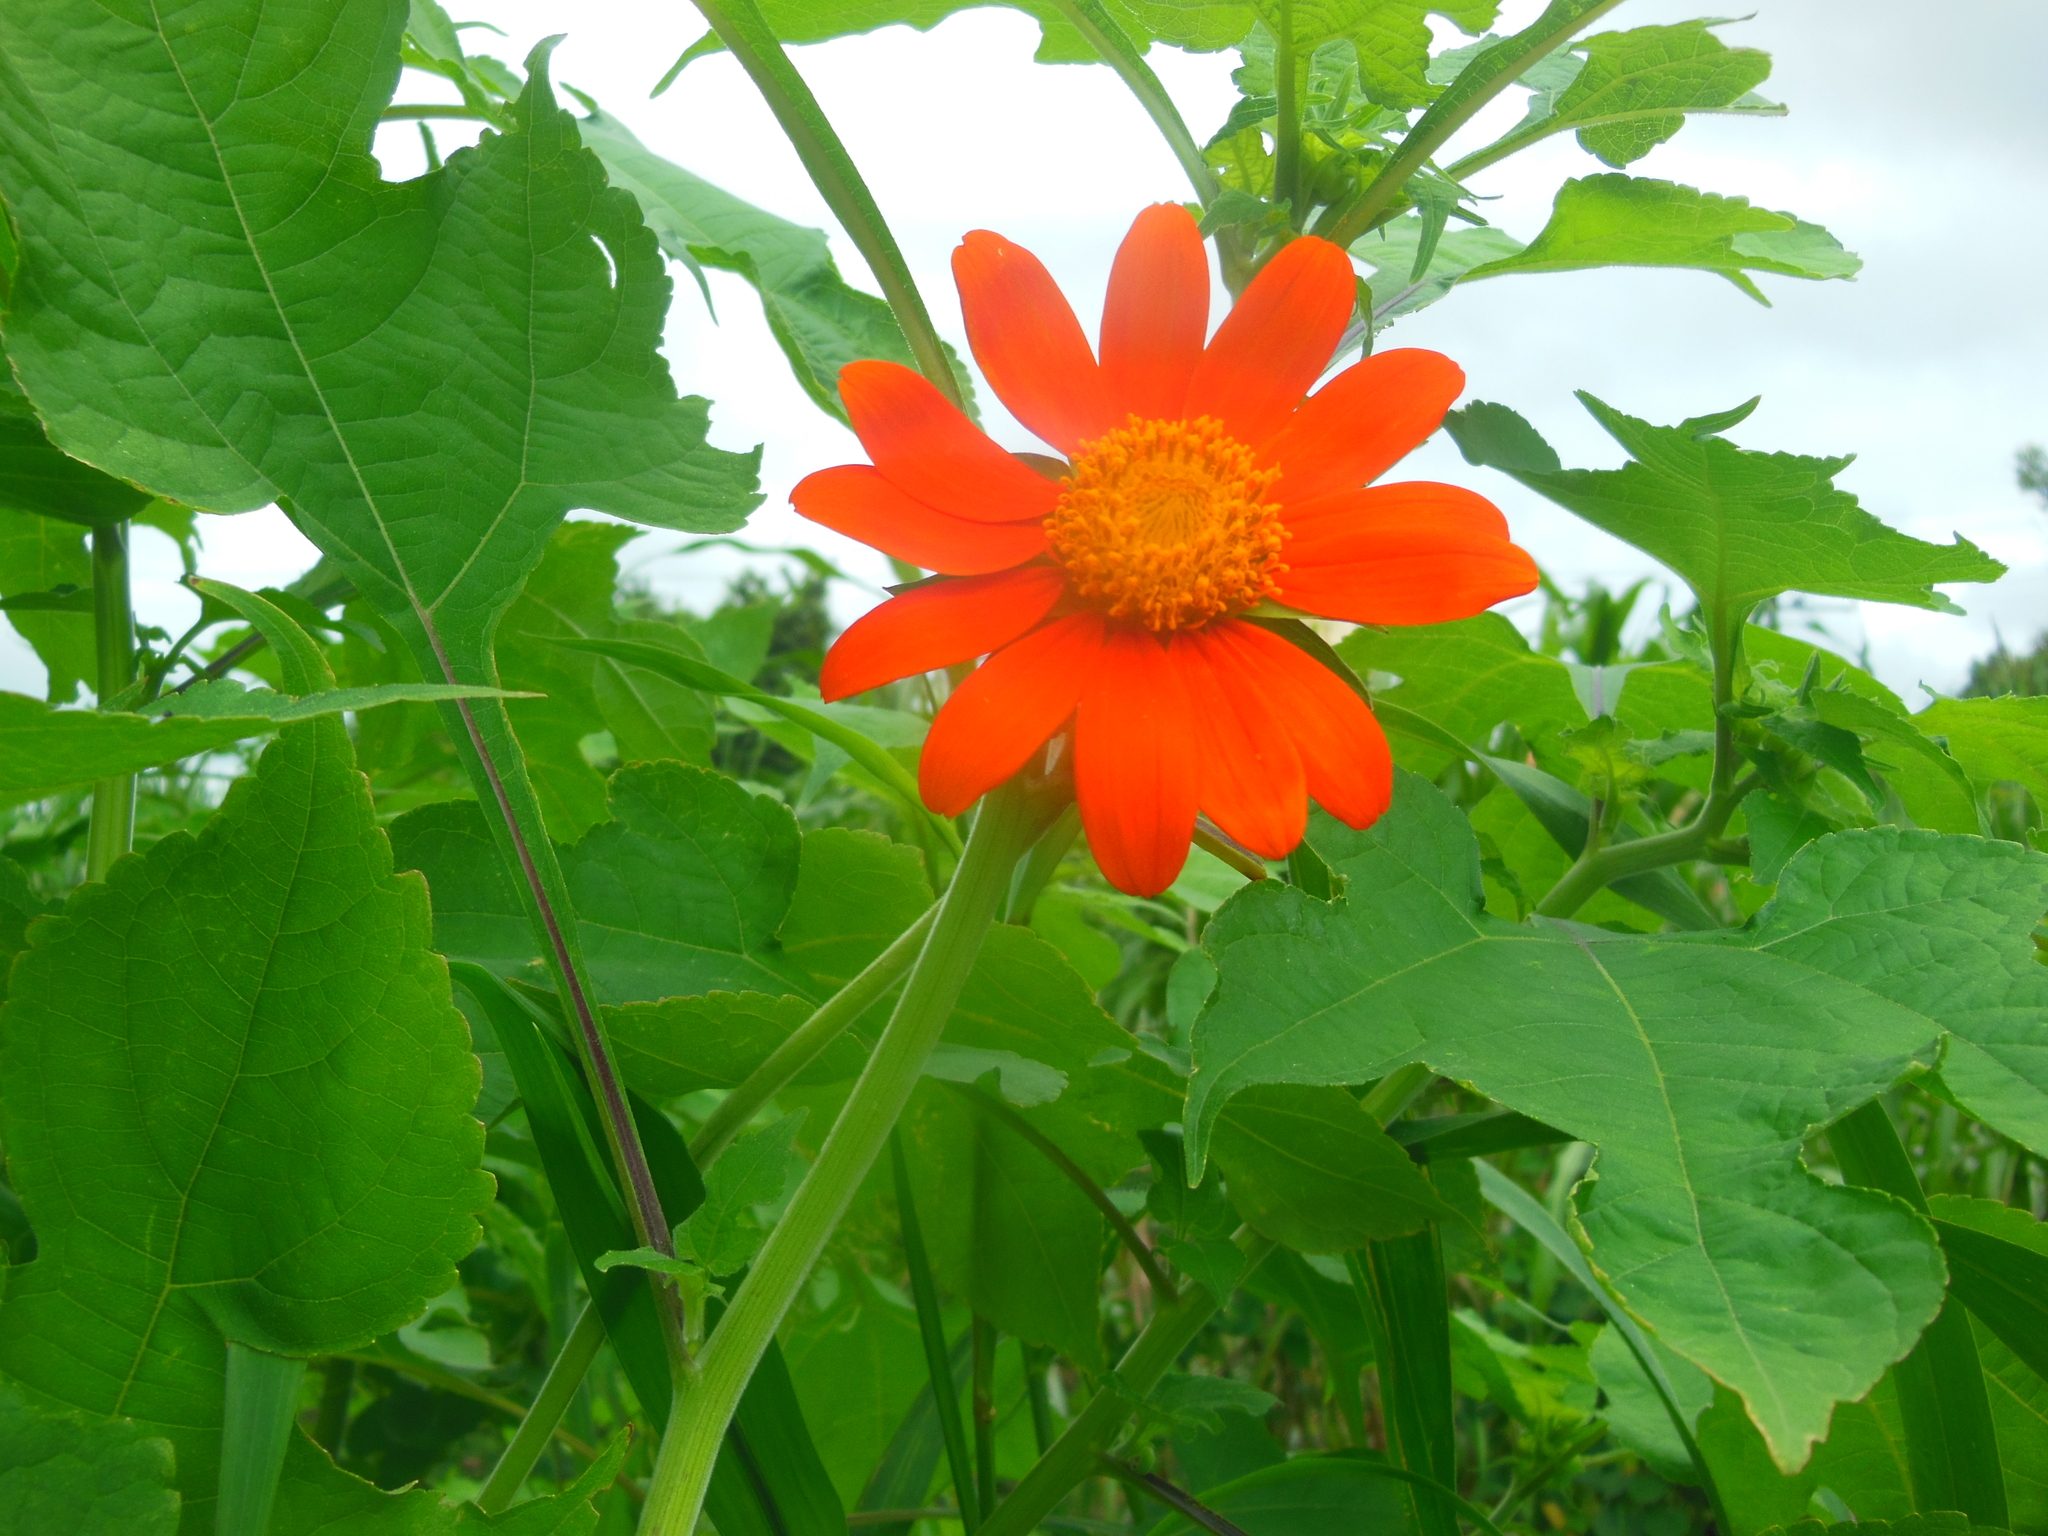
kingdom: Plantae
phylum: Tracheophyta
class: Magnoliopsida
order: Asterales
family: Asteraceae
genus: Tithonia
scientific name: Tithonia rotundifolia
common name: Sunflower
